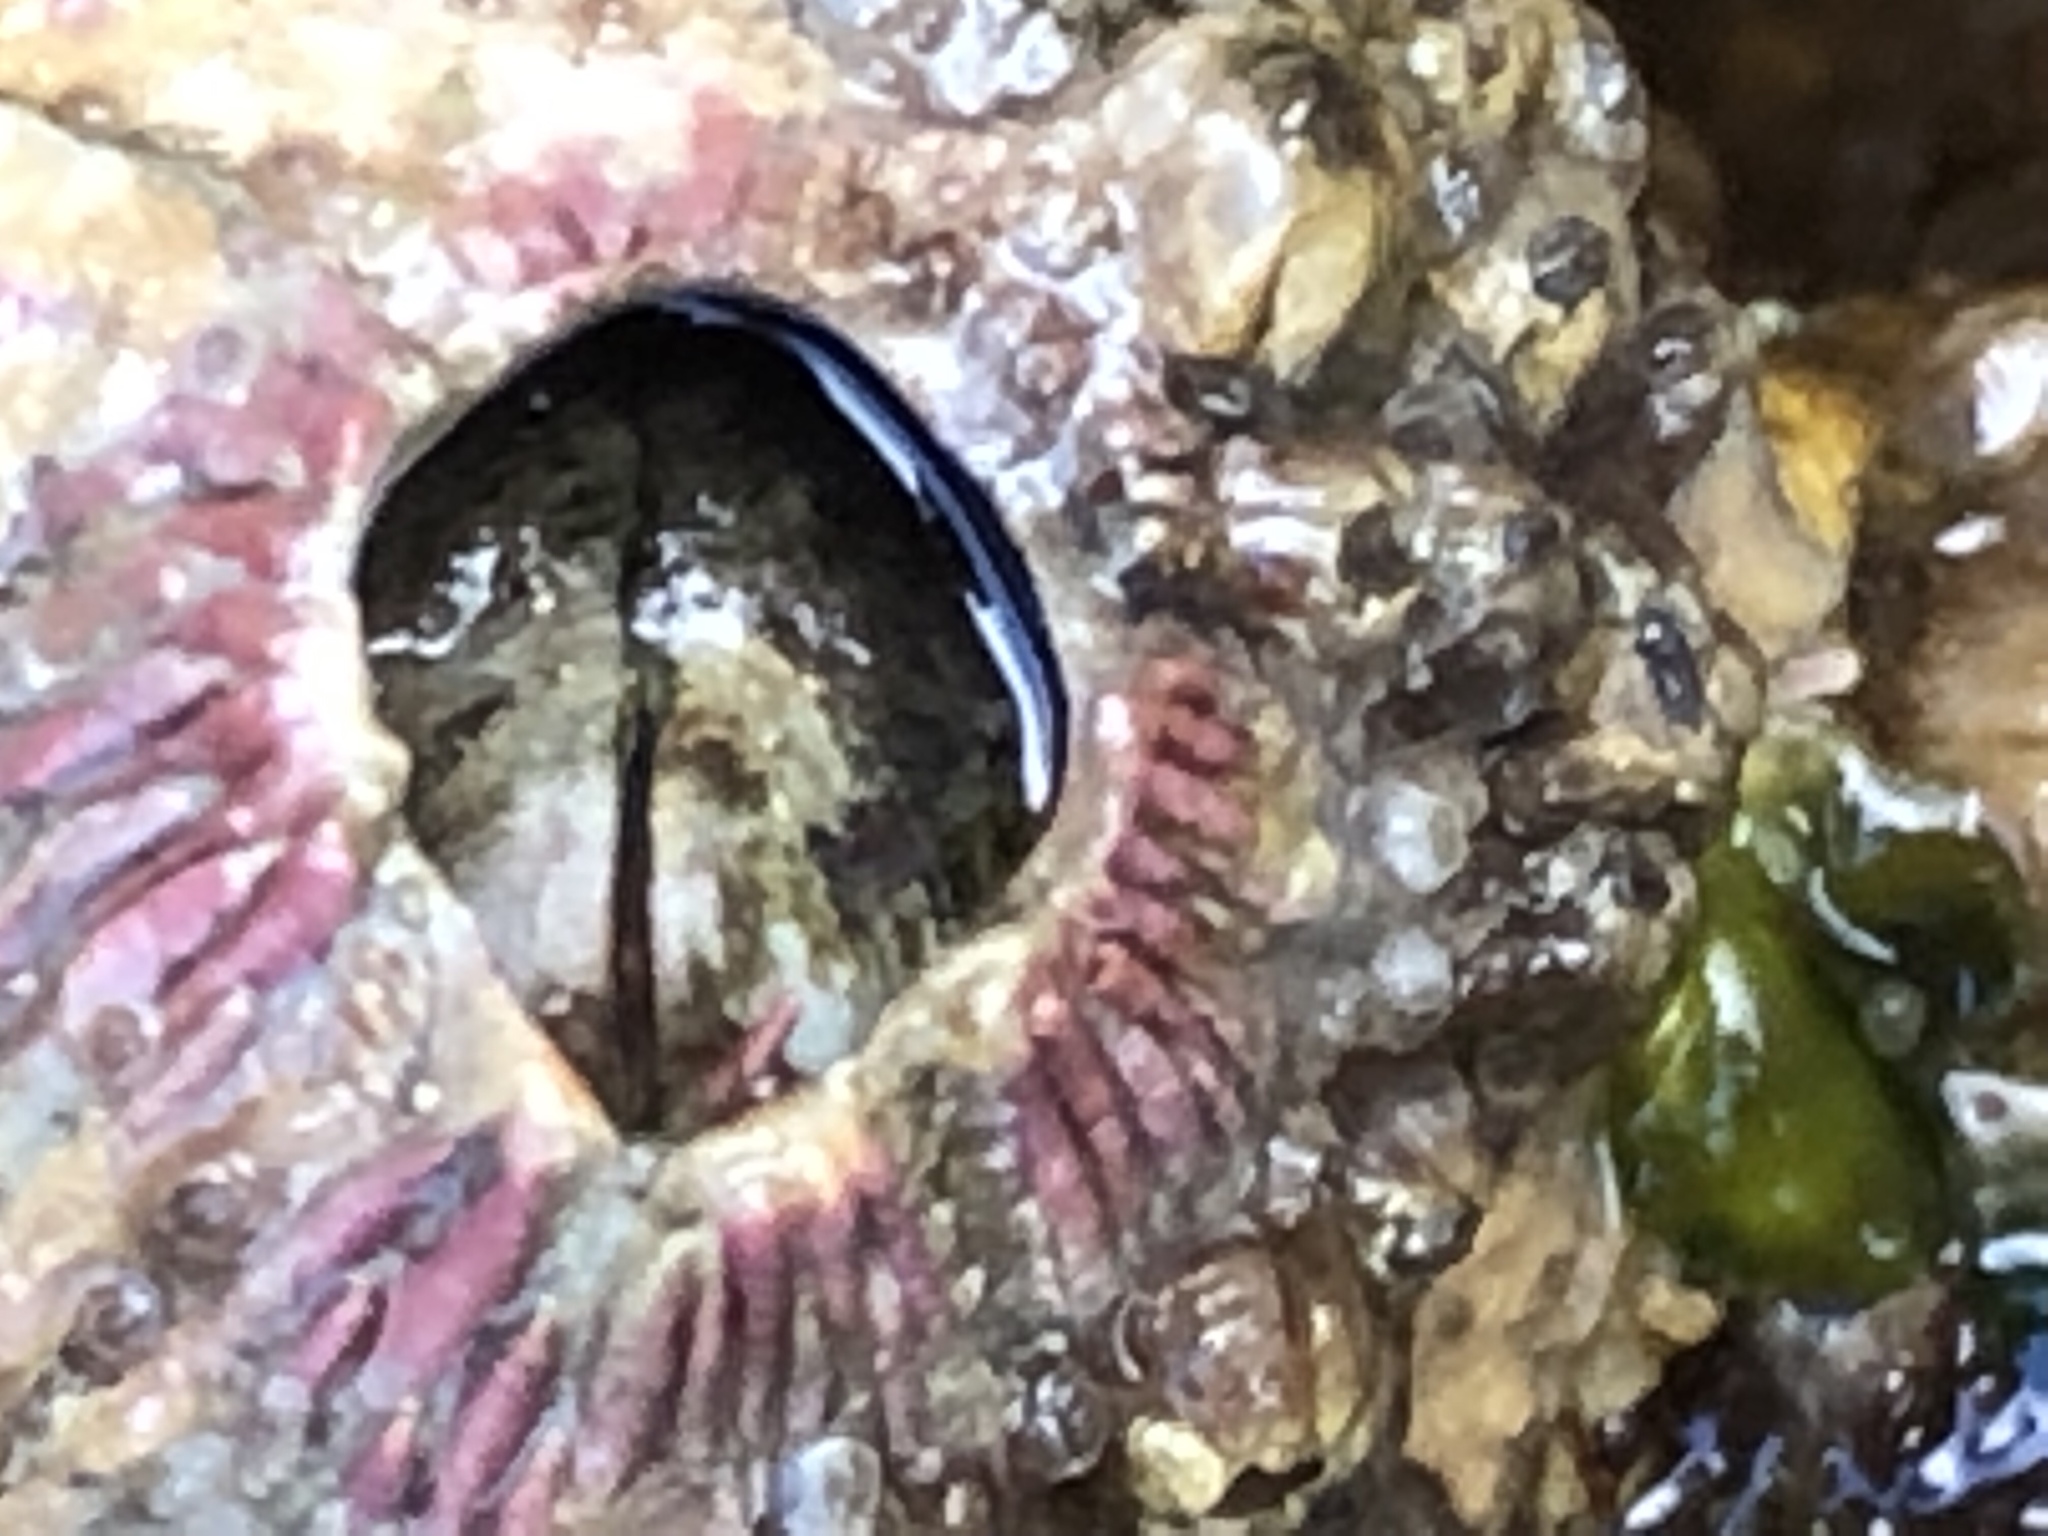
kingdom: Animalia
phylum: Arthropoda
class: Maxillopoda
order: Sessilia
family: Tetraclitidae
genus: Tetraclita
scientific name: Tetraclita rubescens
